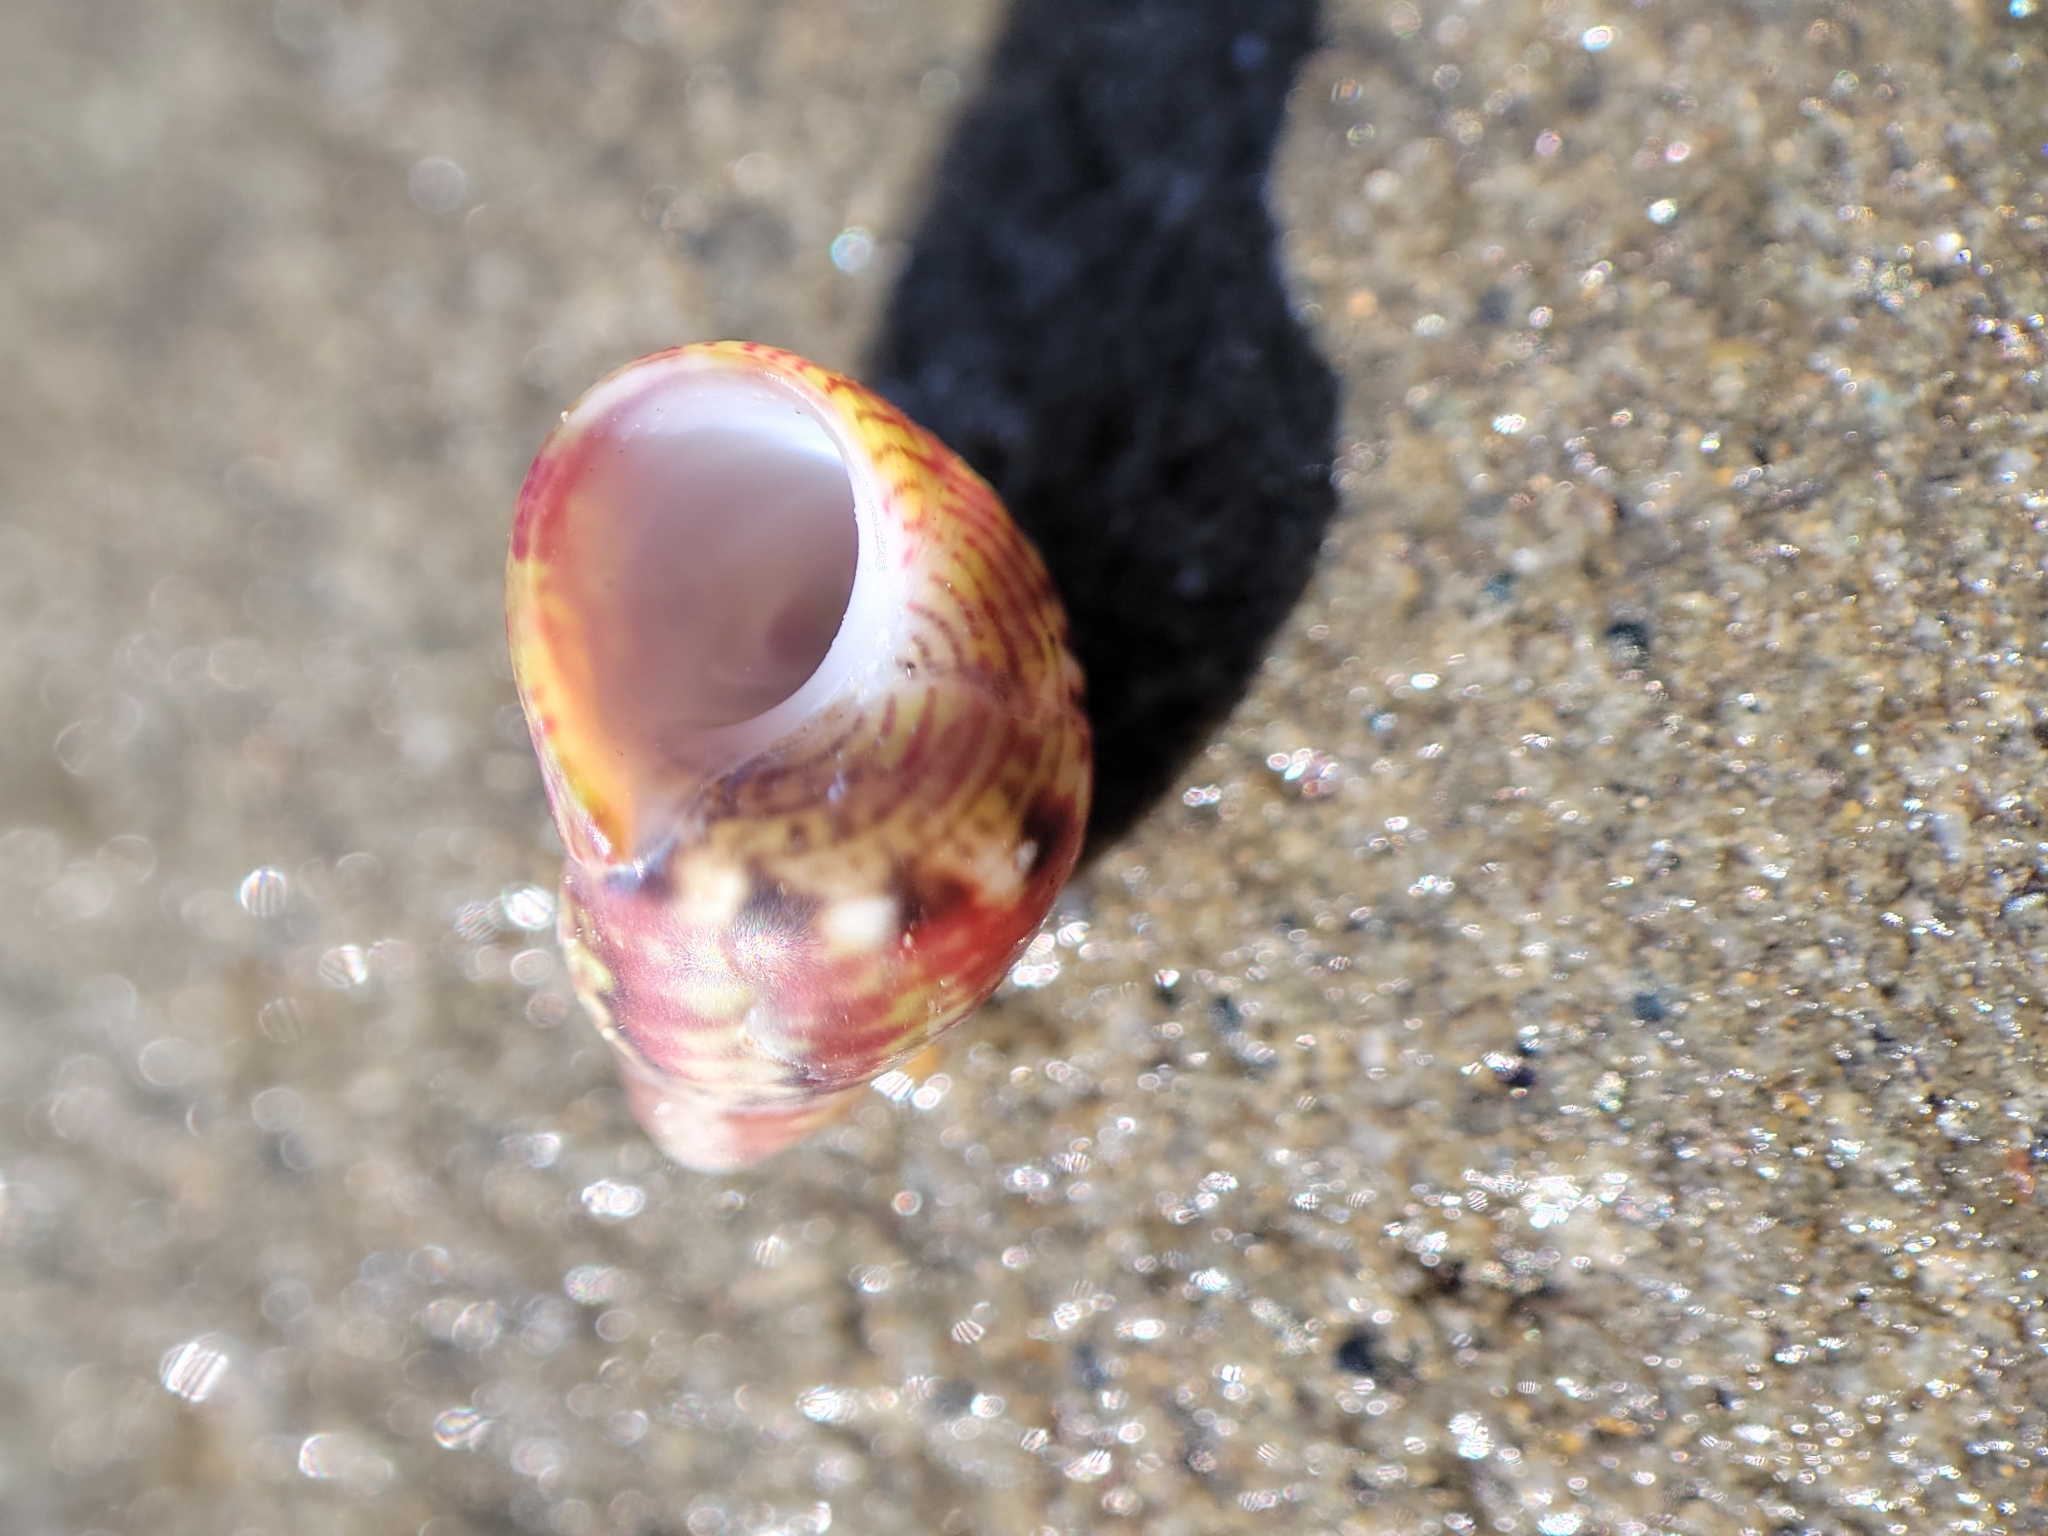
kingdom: Animalia
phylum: Mollusca
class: Gastropoda
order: Trochida
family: Phasianellidae
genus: Eulithidium
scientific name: Eulithidium pulloides
